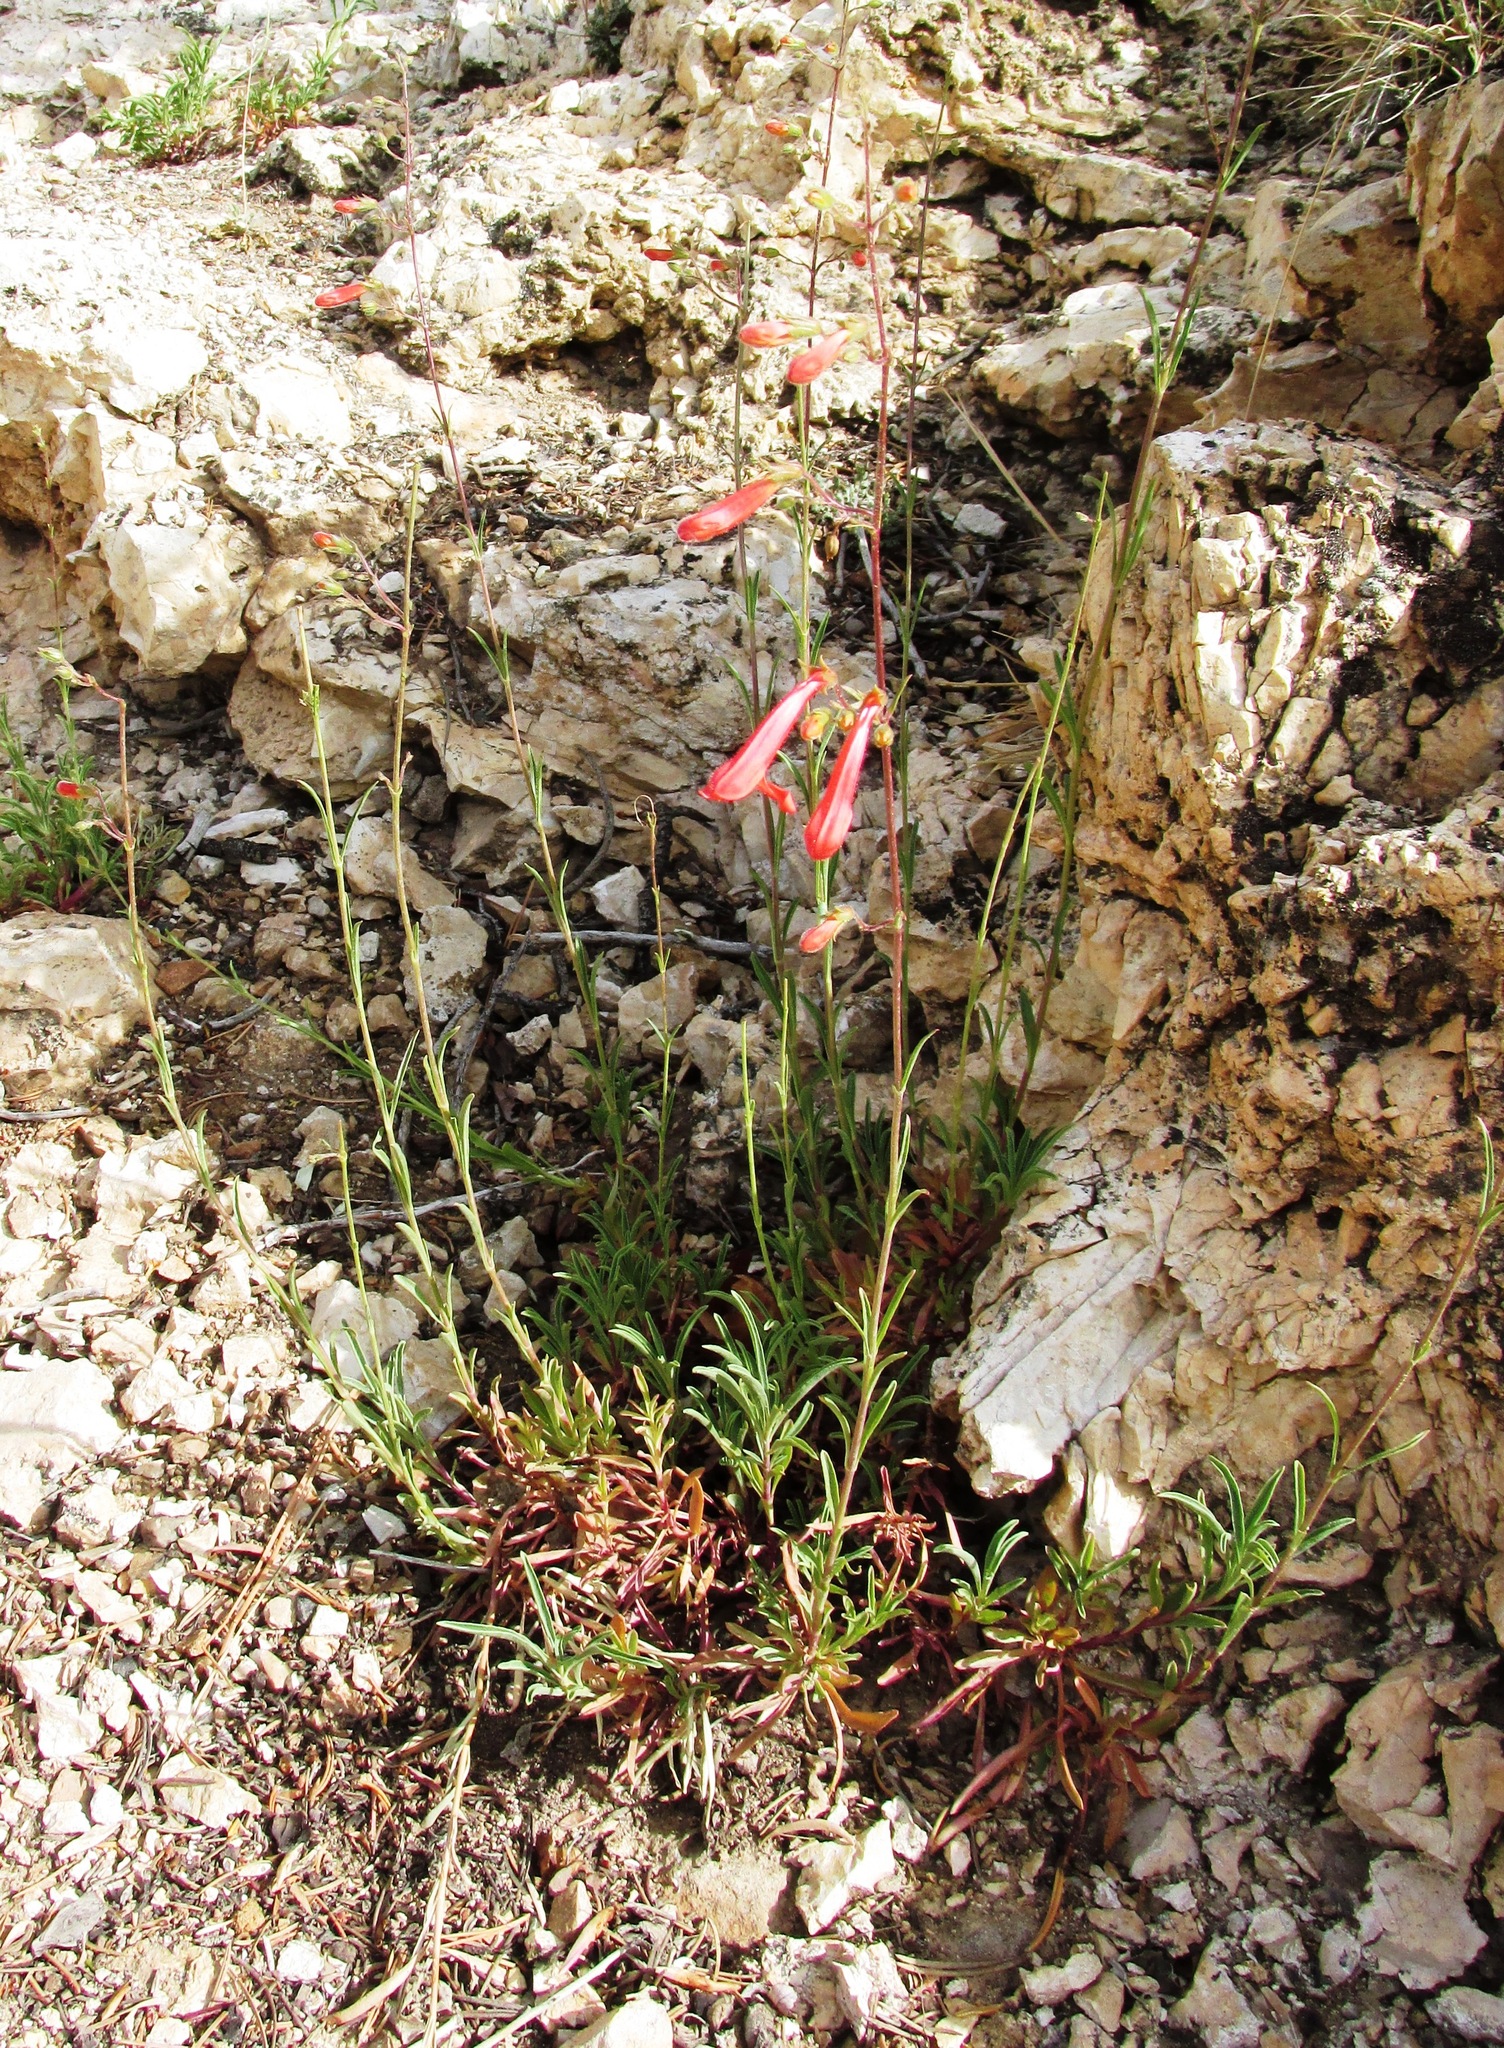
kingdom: Plantae
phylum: Tracheophyta
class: Magnoliopsida
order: Lamiales
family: Plantaginaceae
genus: Penstemon
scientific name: Penstemon rostriflorus
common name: Bridges's penstemon
